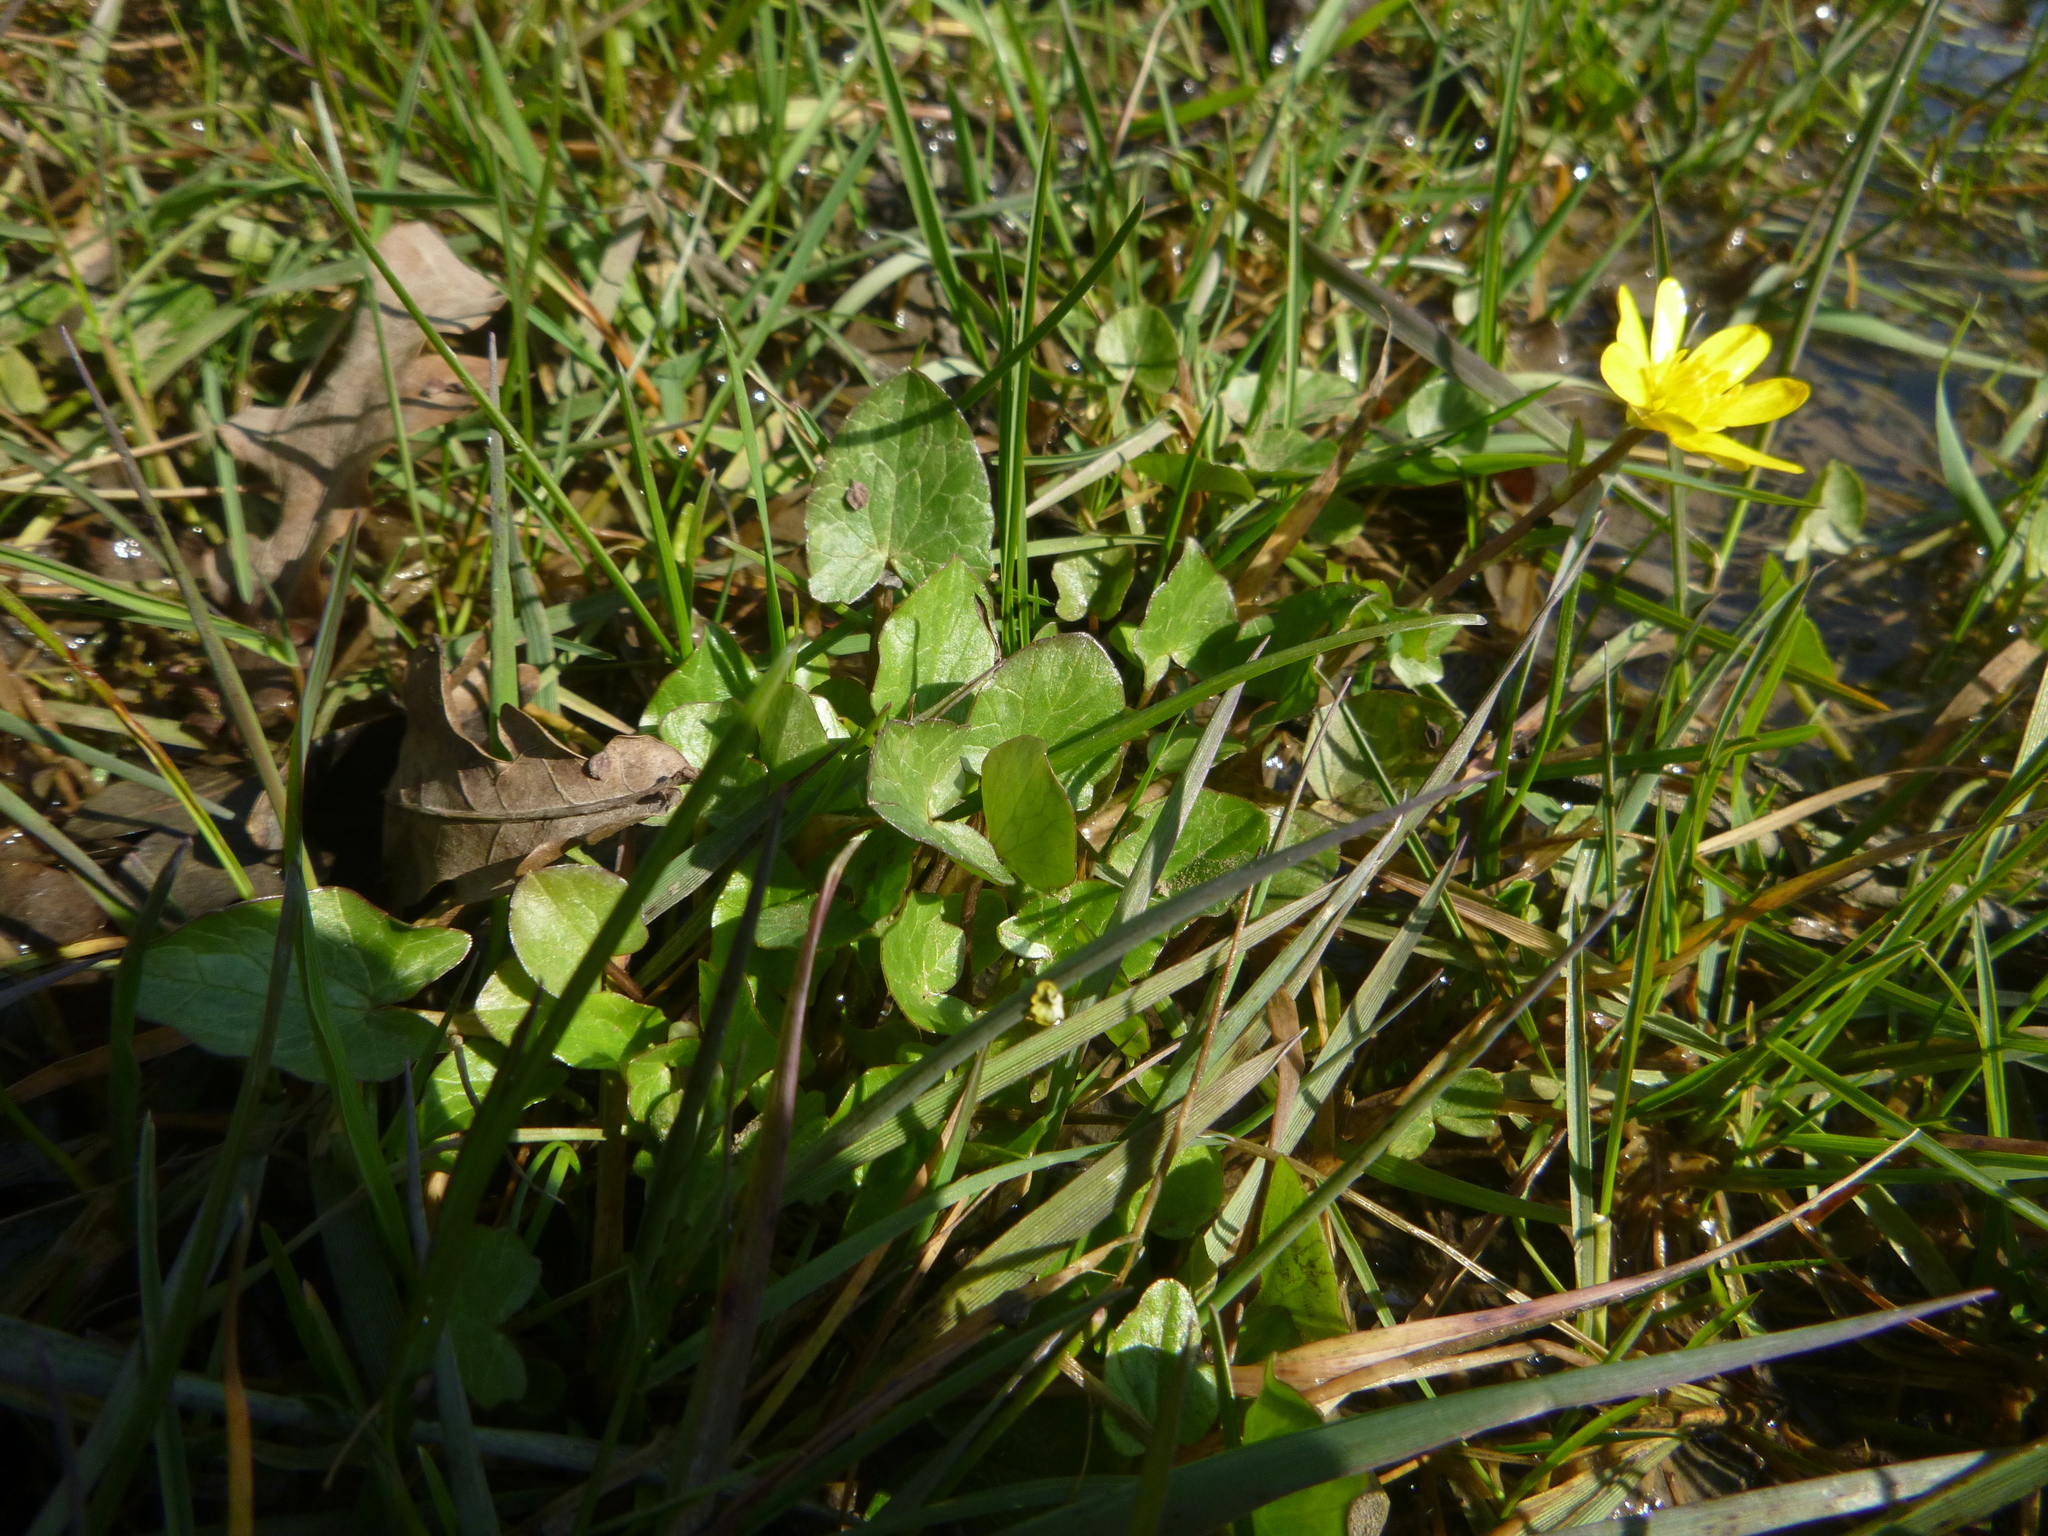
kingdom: Plantae
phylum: Tracheophyta
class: Magnoliopsida
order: Ranunculales
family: Ranunculaceae
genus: Ficaria
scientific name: Ficaria verna
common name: Lesser celandine
